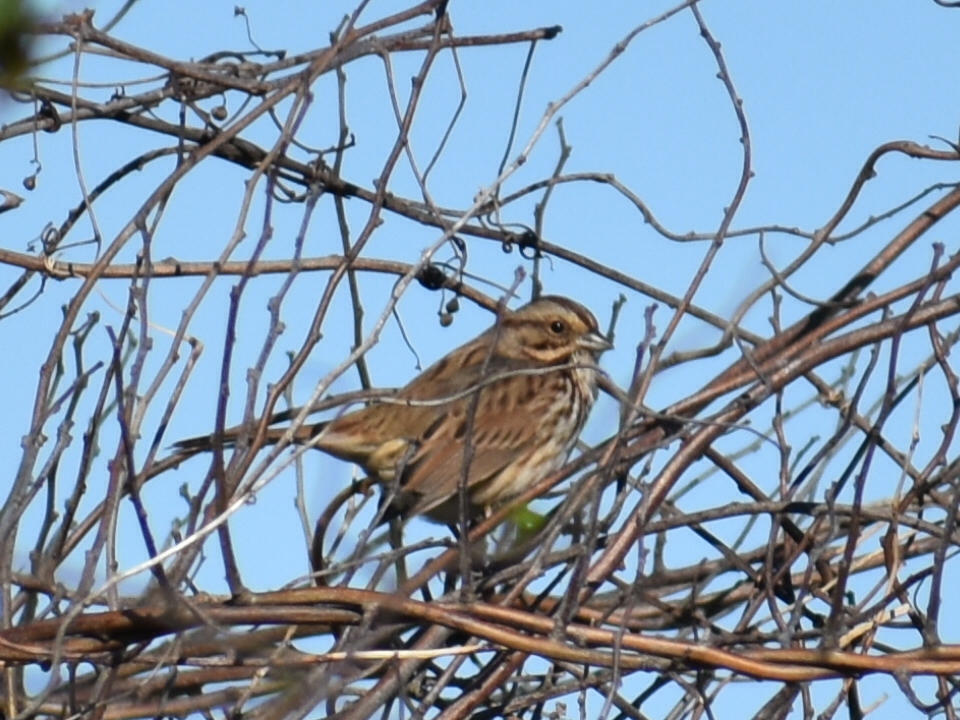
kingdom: Animalia
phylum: Chordata
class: Aves
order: Passeriformes
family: Passerellidae
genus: Melospiza
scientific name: Melospiza melodia
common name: Song sparrow
